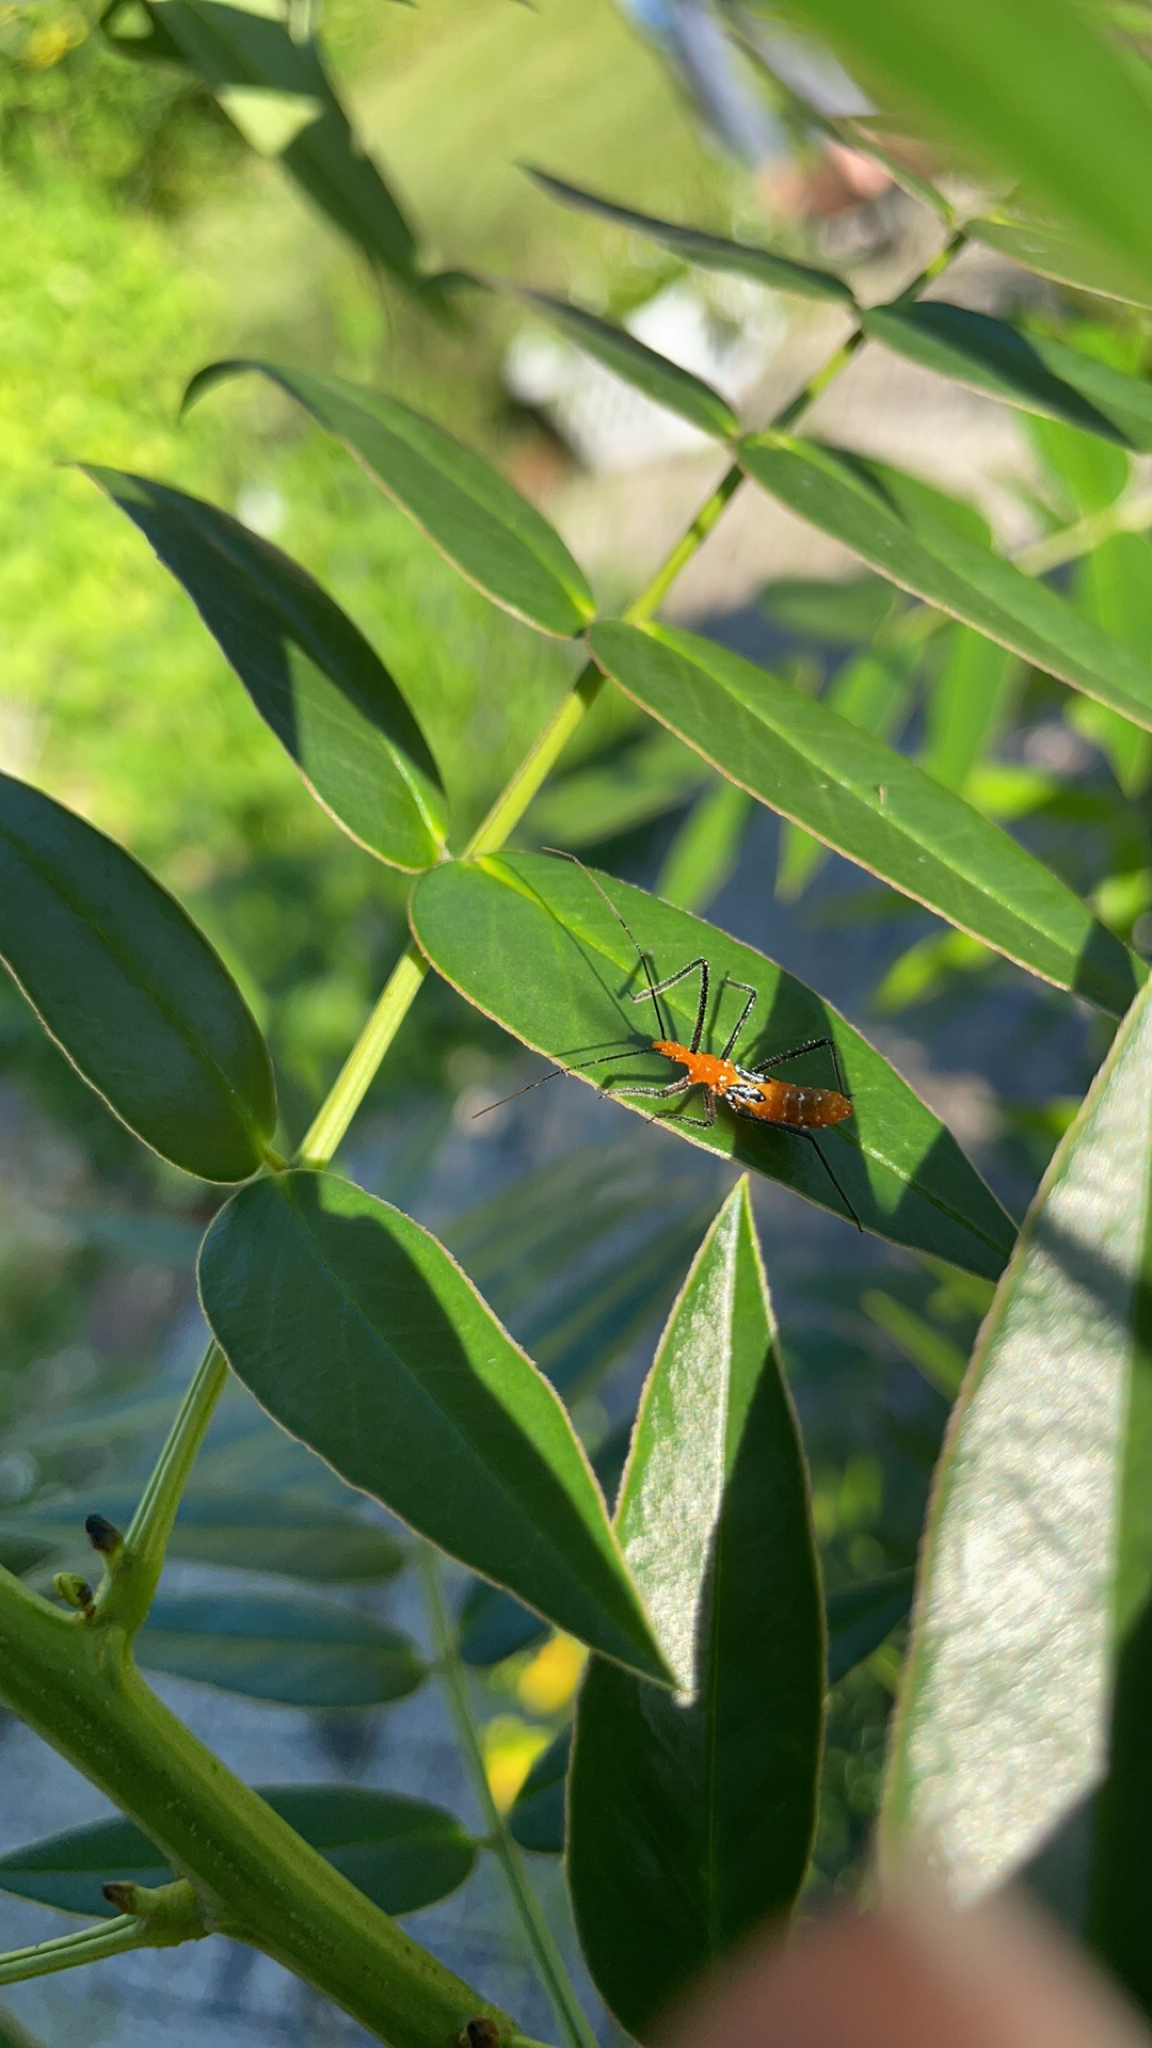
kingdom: Animalia
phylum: Arthropoda
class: Insecta
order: Hemiptera
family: Reduviidae
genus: Zelus
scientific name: Zelus longipes
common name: Milkweed assassin bug
